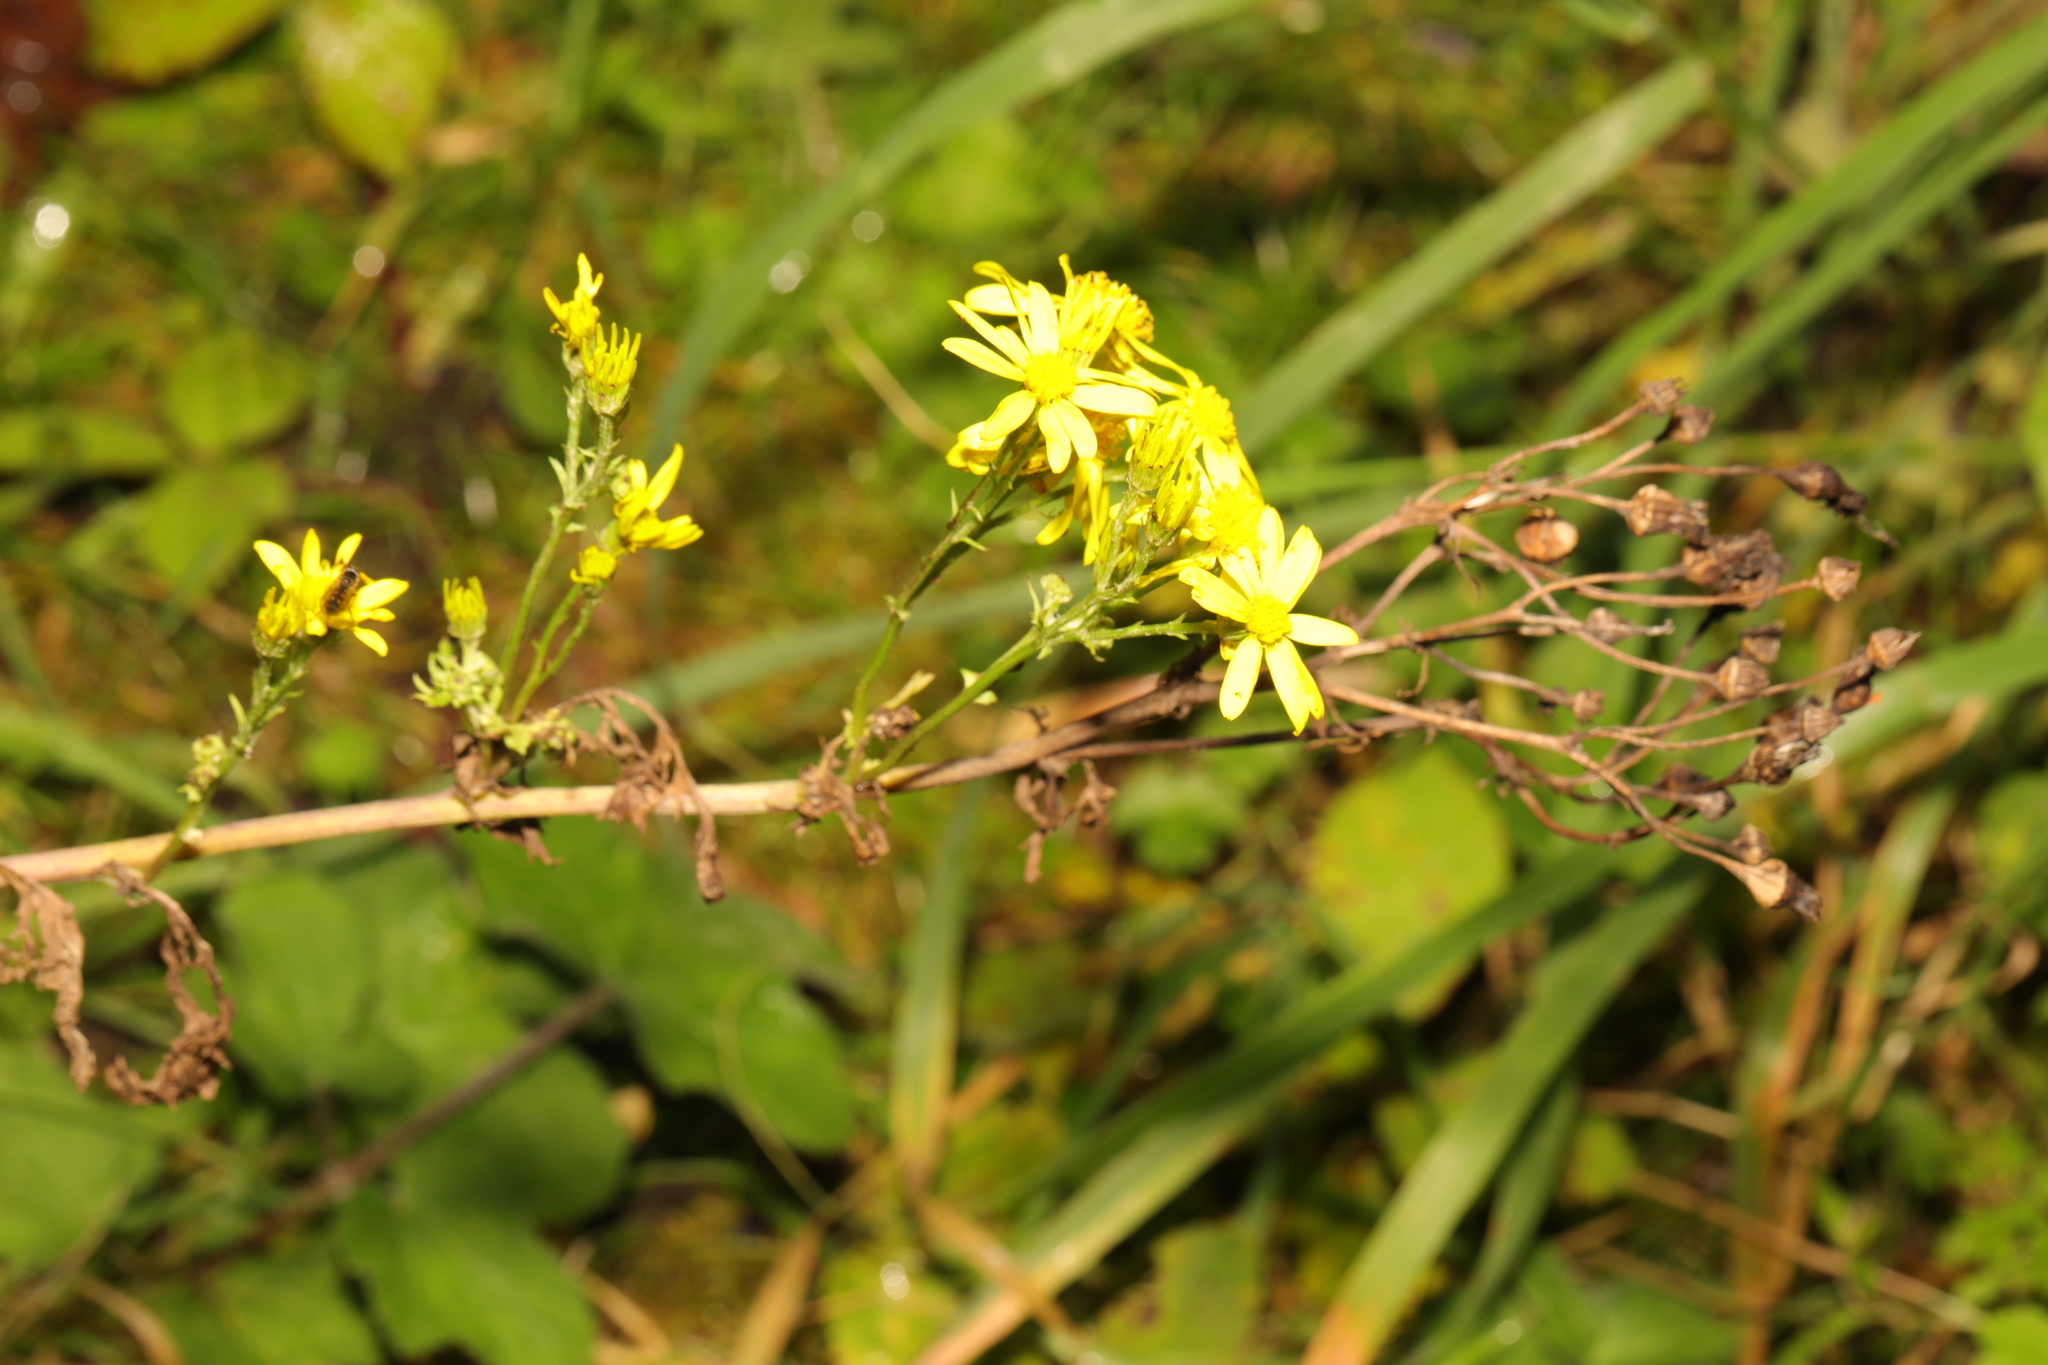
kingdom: Plantae
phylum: Tracheophyta
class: Magnoliopsida
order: Asterales
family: Asteraceae
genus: Jacobaea
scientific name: Jacobaea vulgaris
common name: Stinking willie
